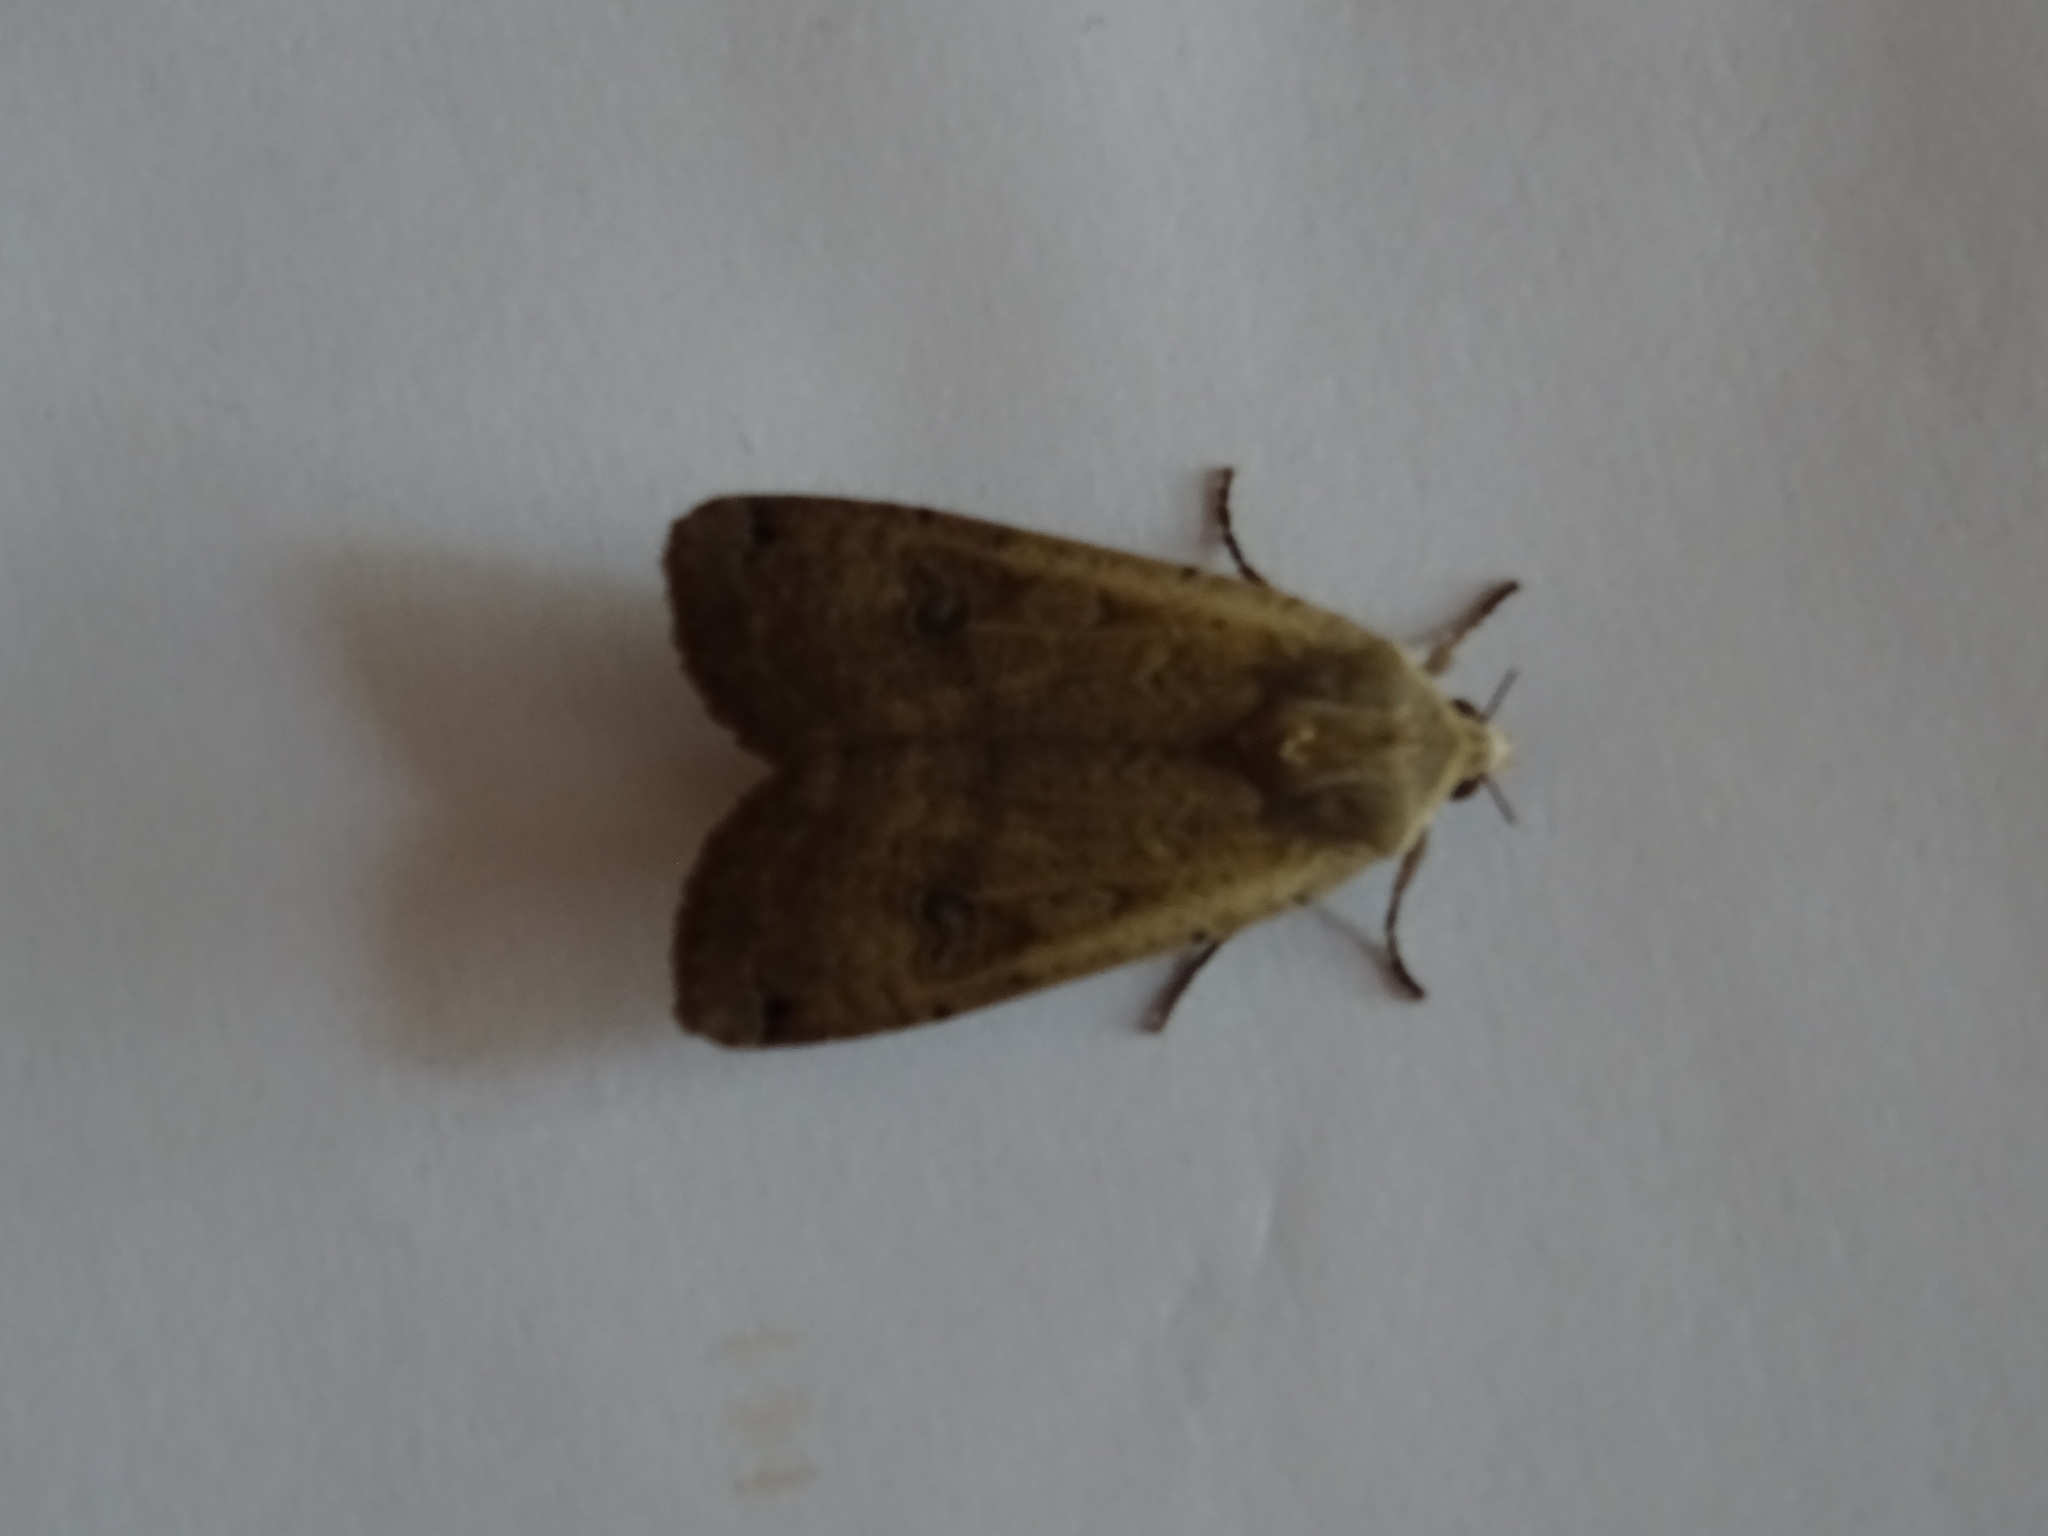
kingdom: Animalia
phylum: Arthropoda
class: Insecta
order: Lepidoptera
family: Noctuidae
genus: Noctua
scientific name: Noctua pronuba
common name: Large yellow underwing
